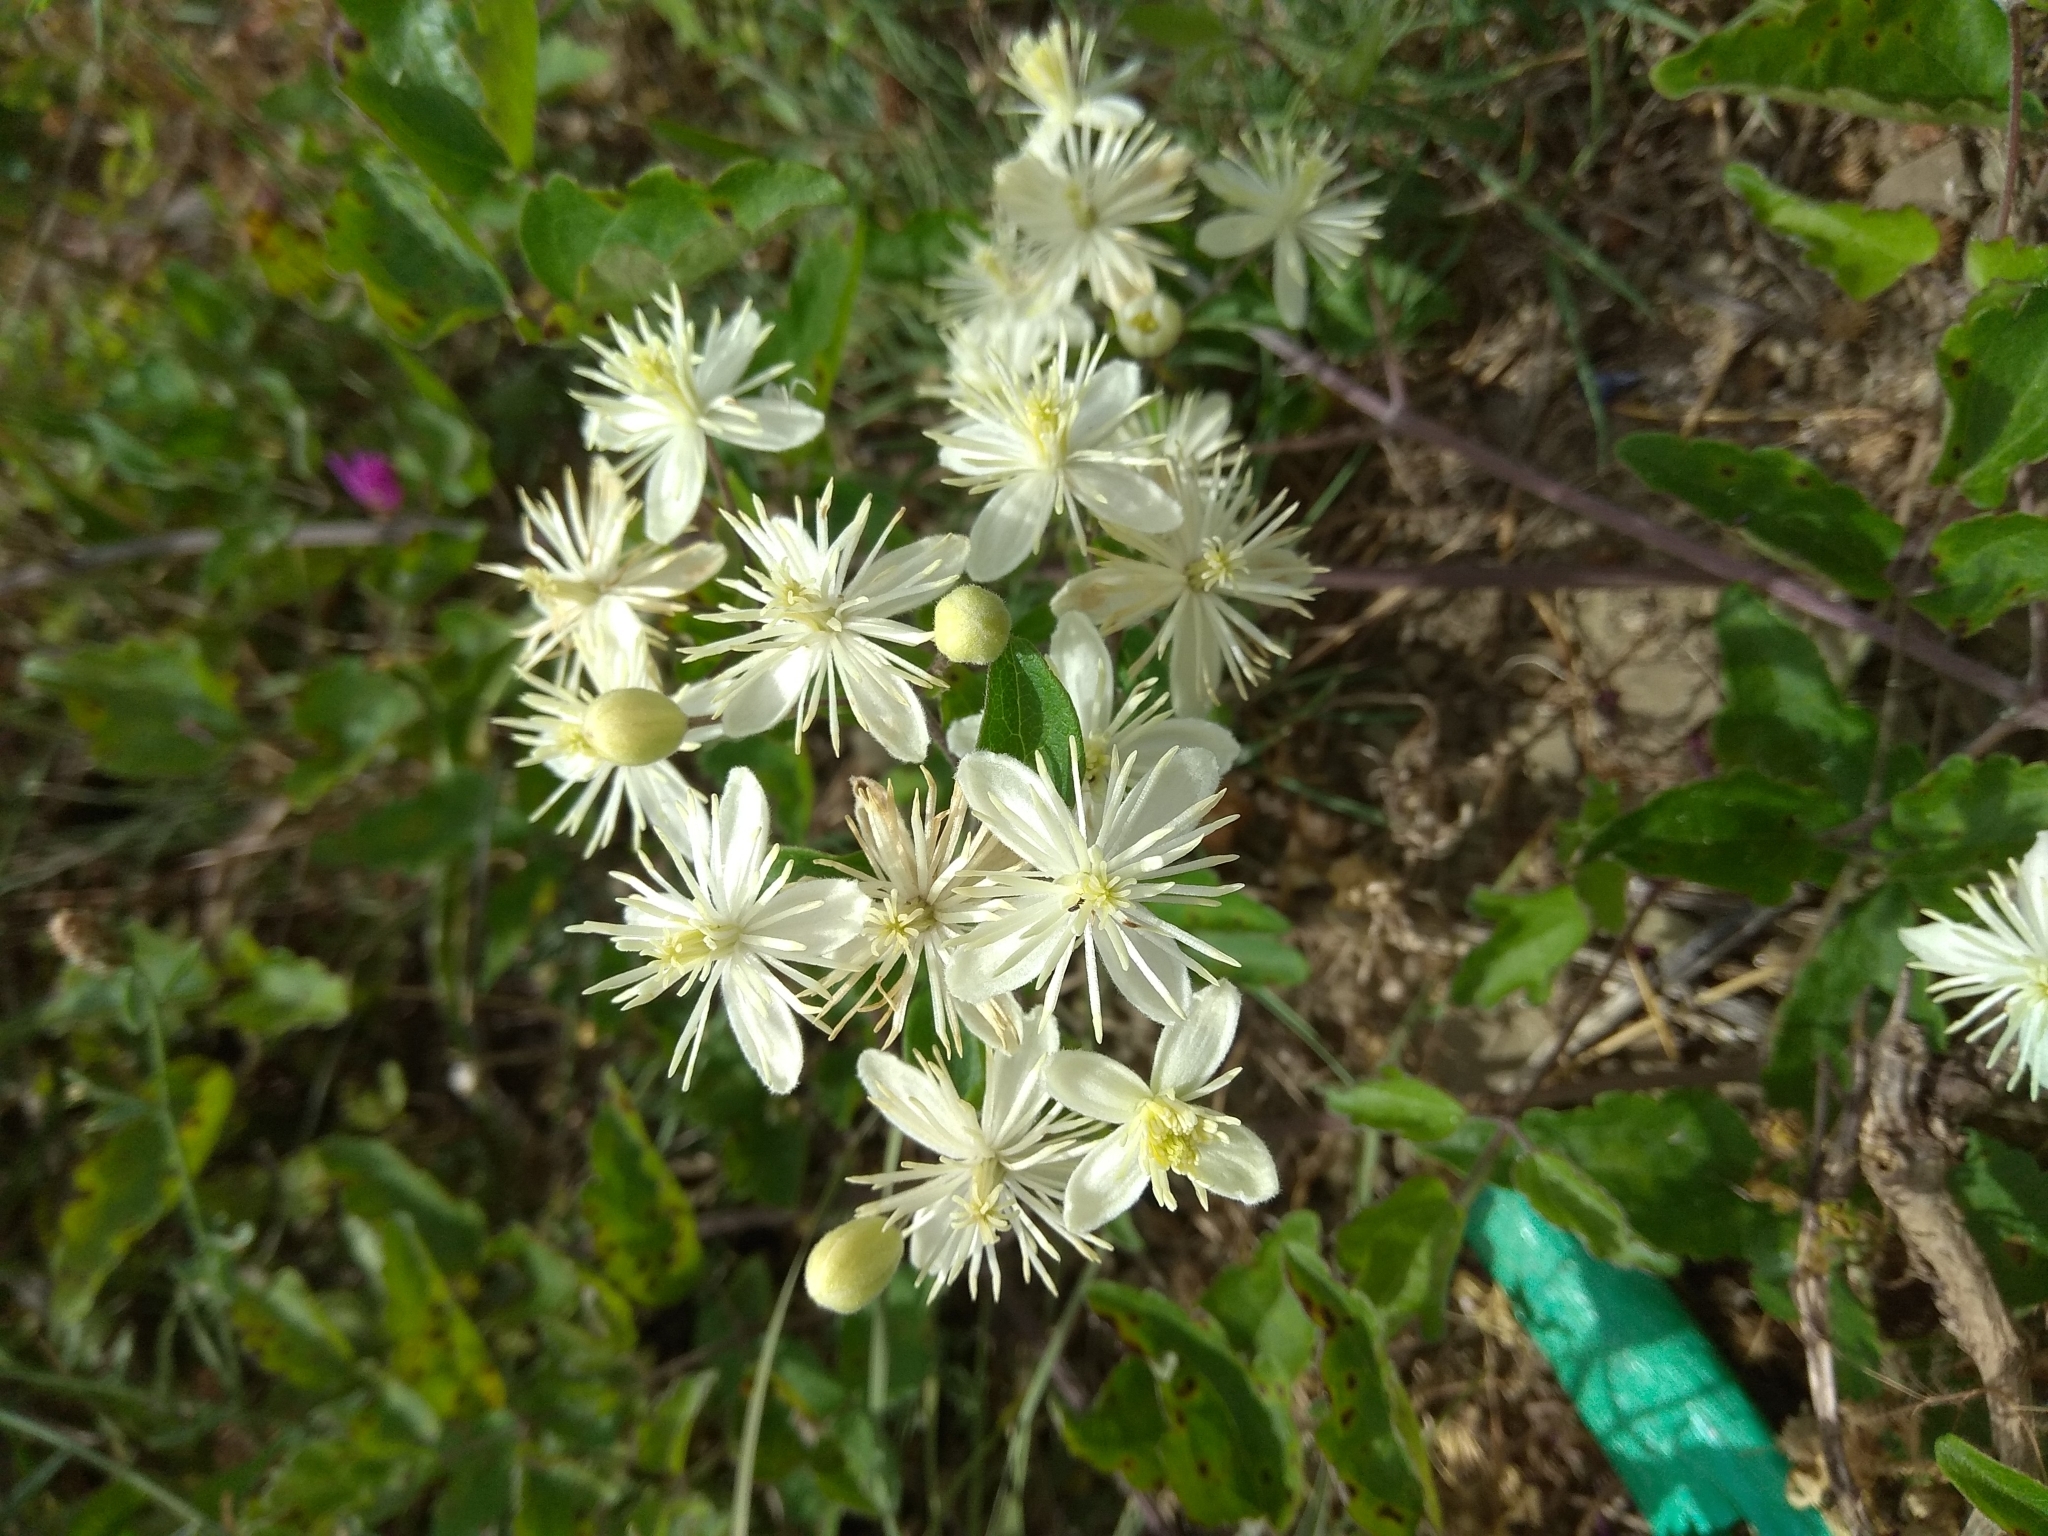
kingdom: Plantae
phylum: Tracheophyta
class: Magnoliopsida
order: Ranunculales
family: Ranunculaceae
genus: Clematis
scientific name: Clematis vitalba
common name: Evergreen clematis
